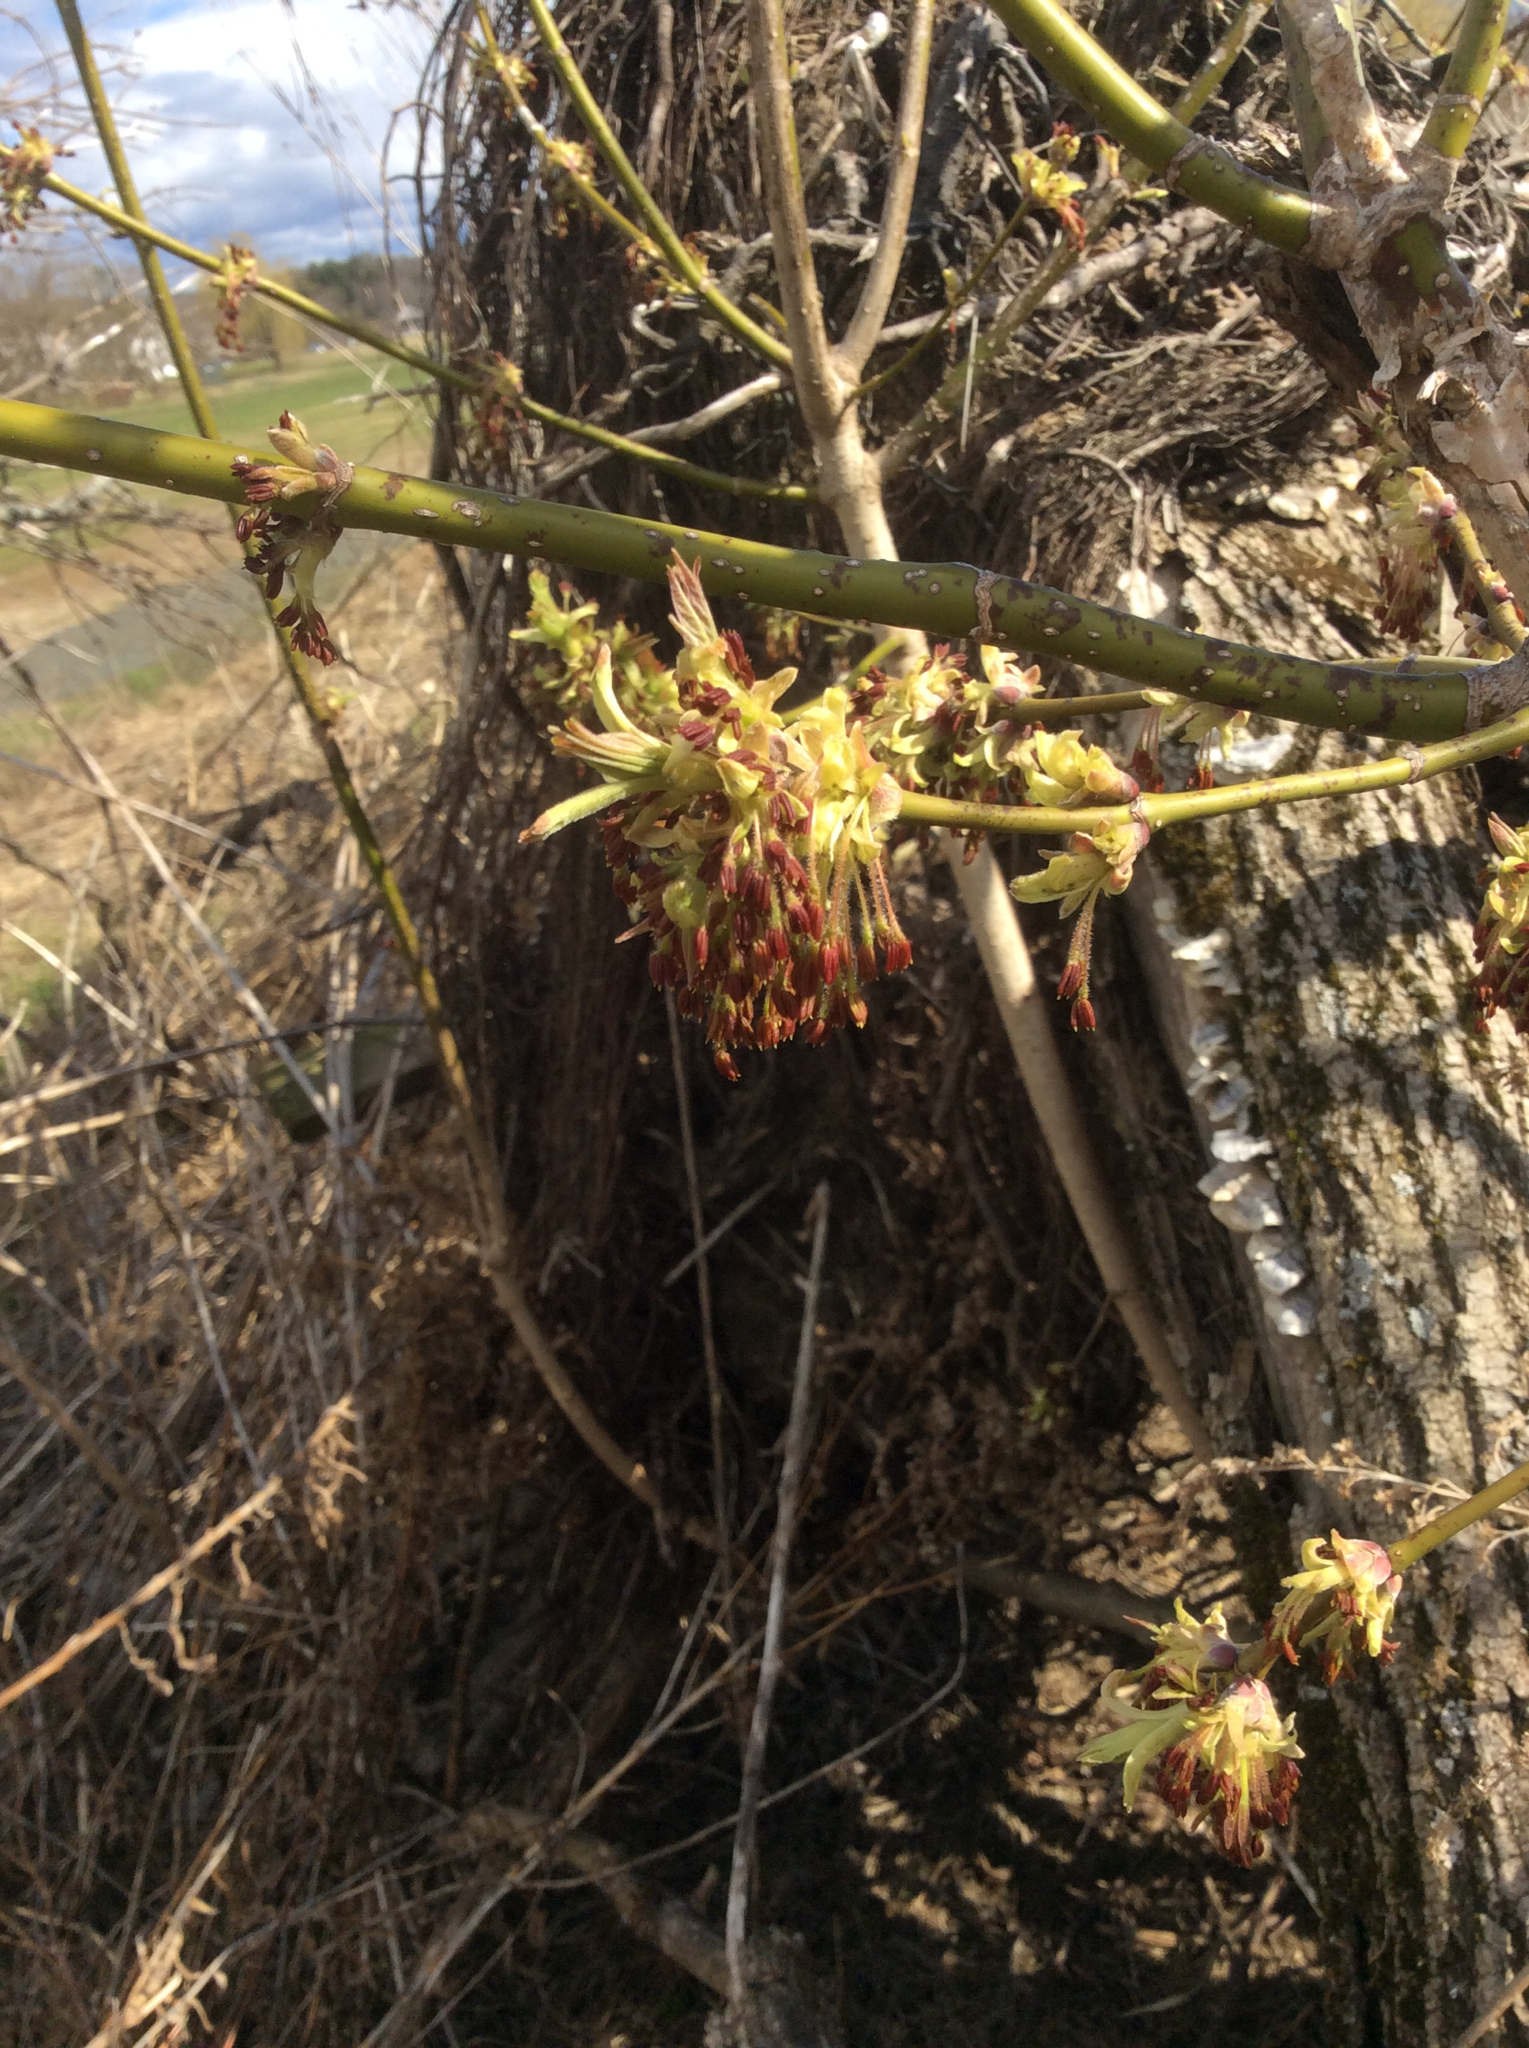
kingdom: Plantae
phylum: Tracheophyta
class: Magnoliopsida
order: Sapindales
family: Sapindaceae
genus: Acer
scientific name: Acer negundo
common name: Ashleaf maple
